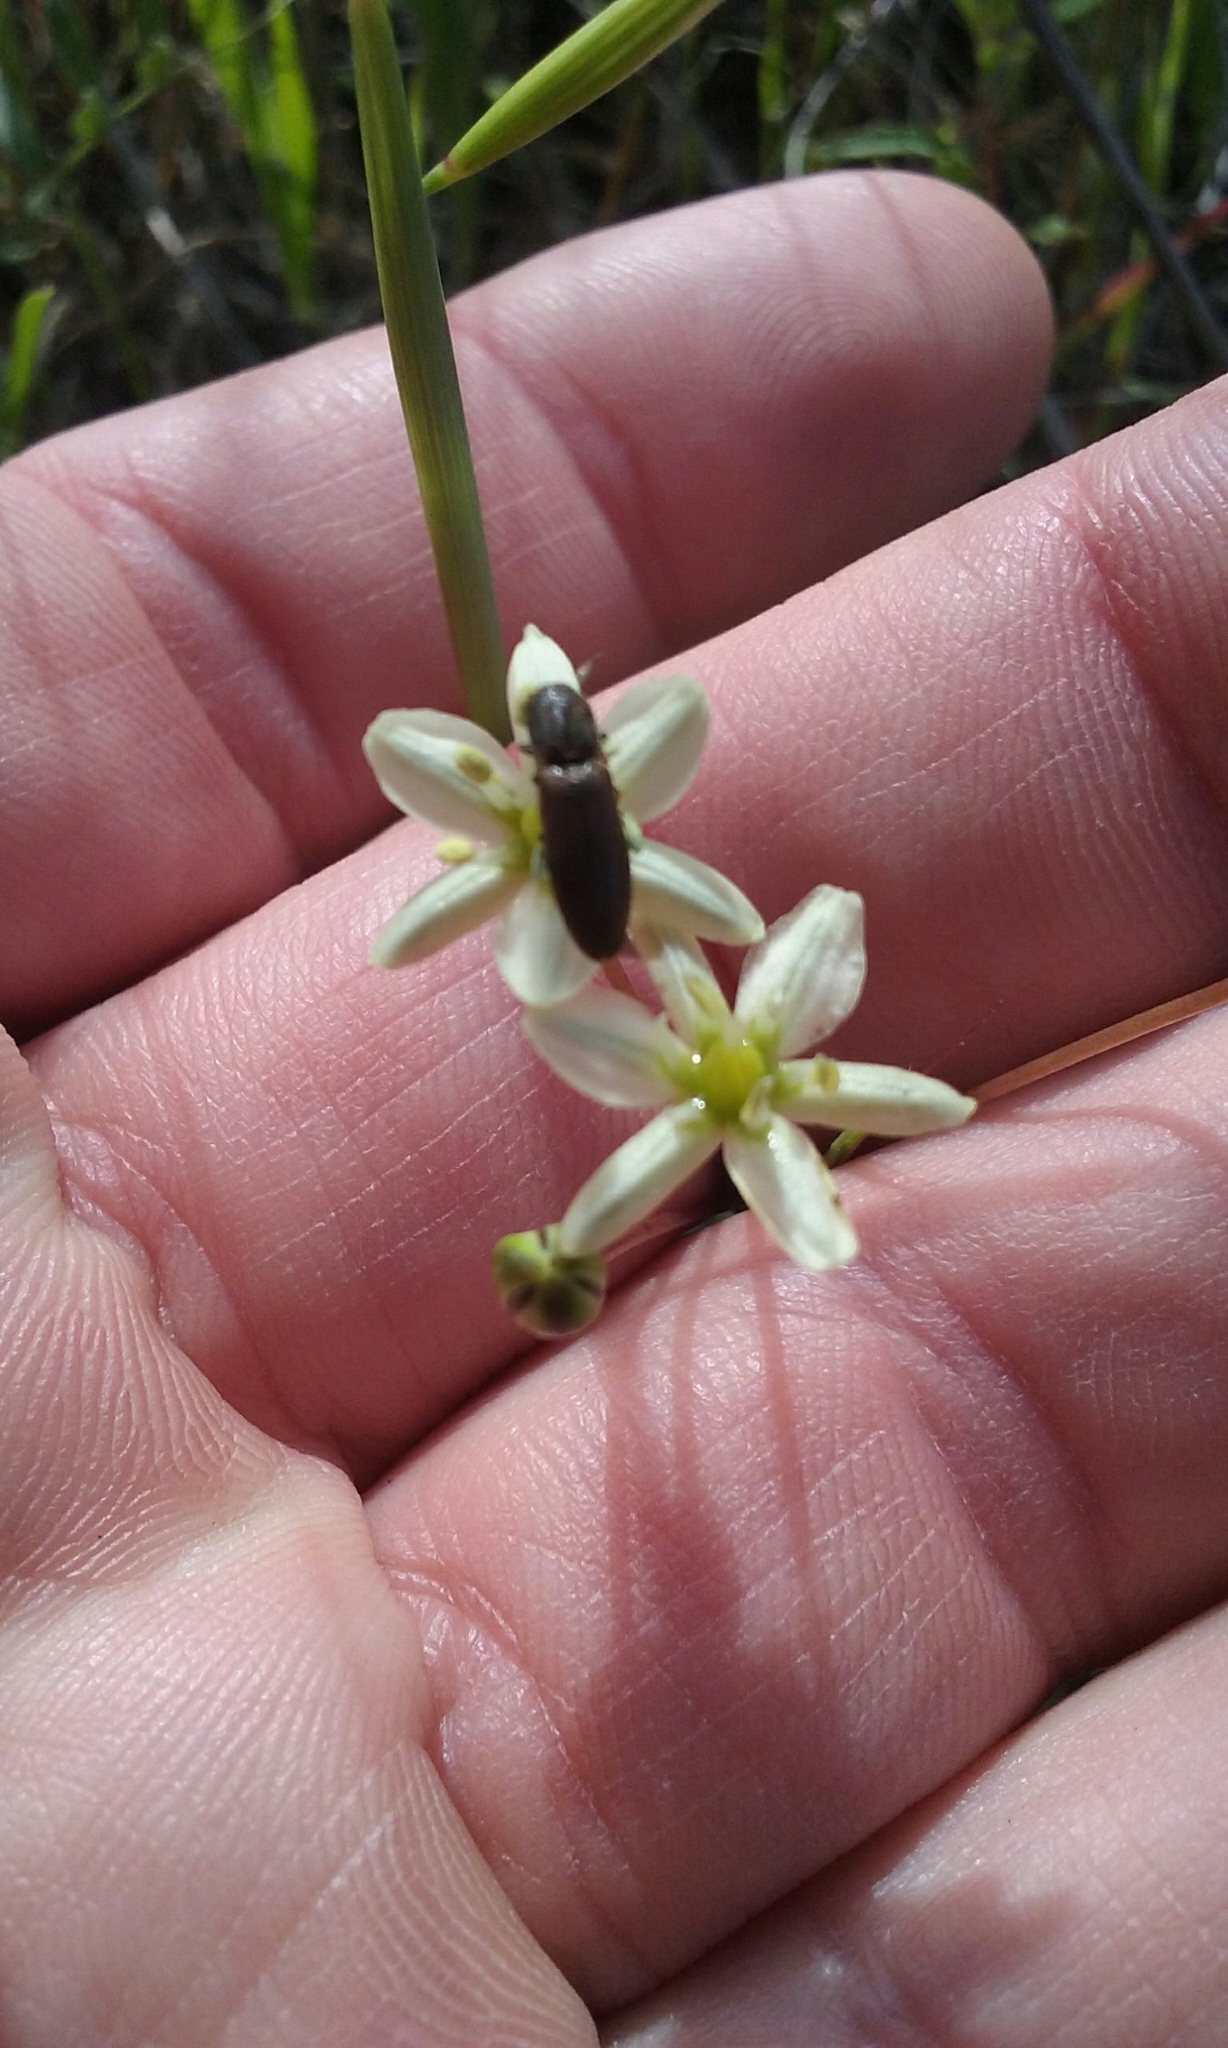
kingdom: Plantae
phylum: Tracheophyta
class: Liliopsida
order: Asparagales
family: Asparagaceae
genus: Muilla
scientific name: Muilla maritima
